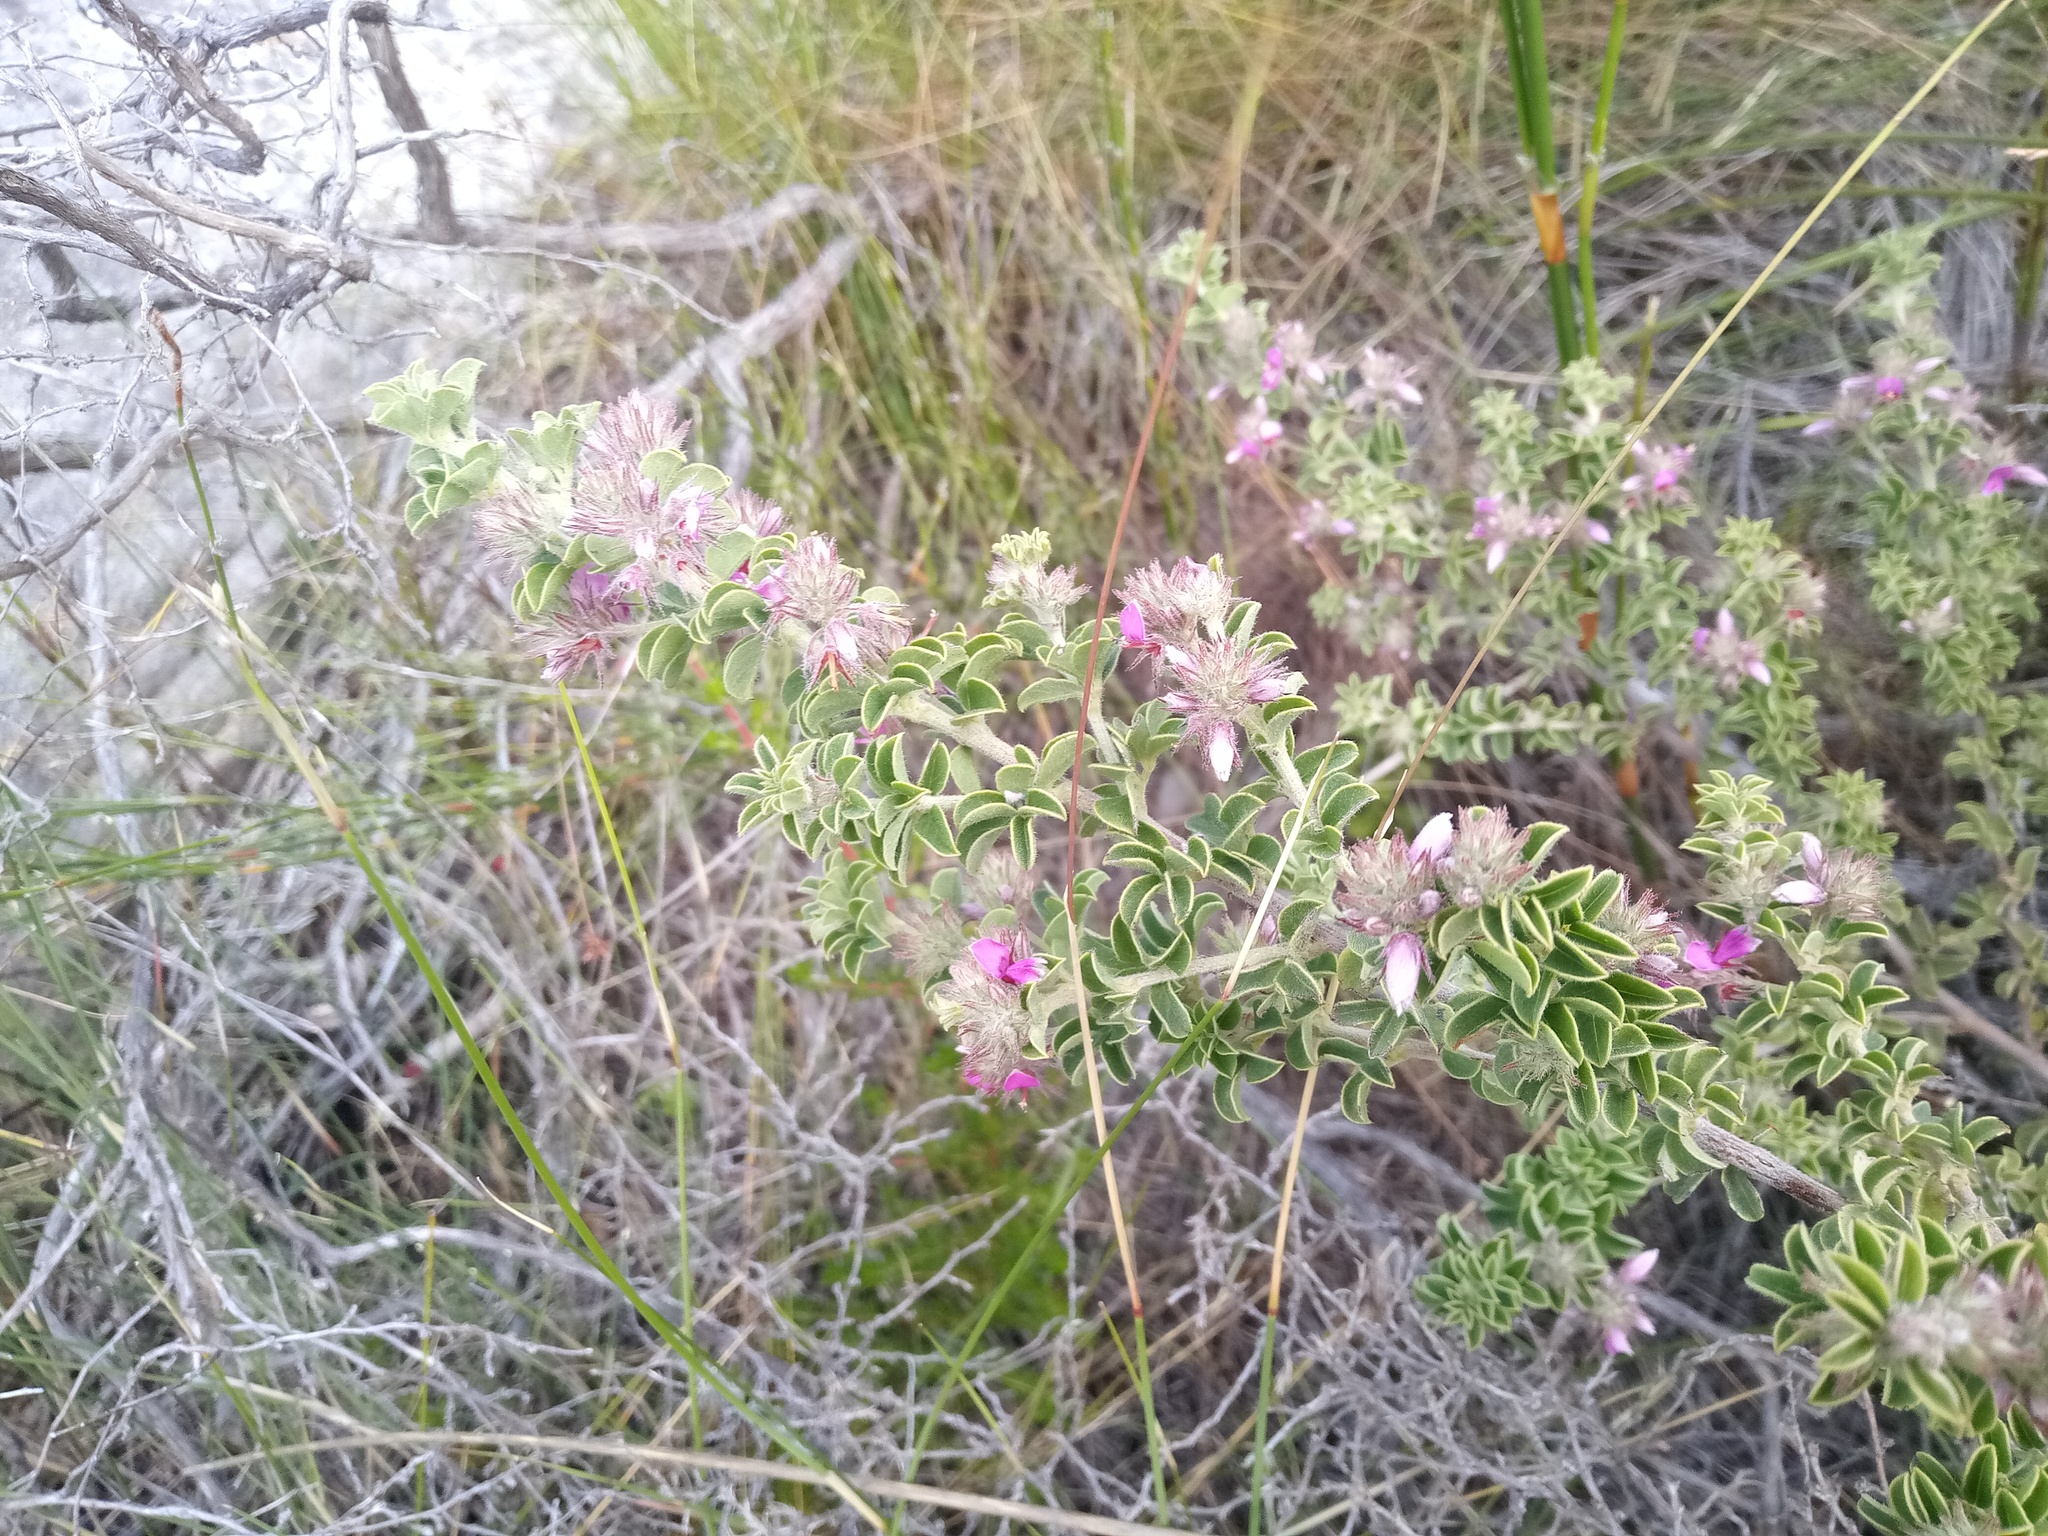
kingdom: Plantae
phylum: Tracheophyta
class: Magnoliopsida
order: Fabales
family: Fabaceae
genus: Indigofera
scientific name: Indigofera candolleana
